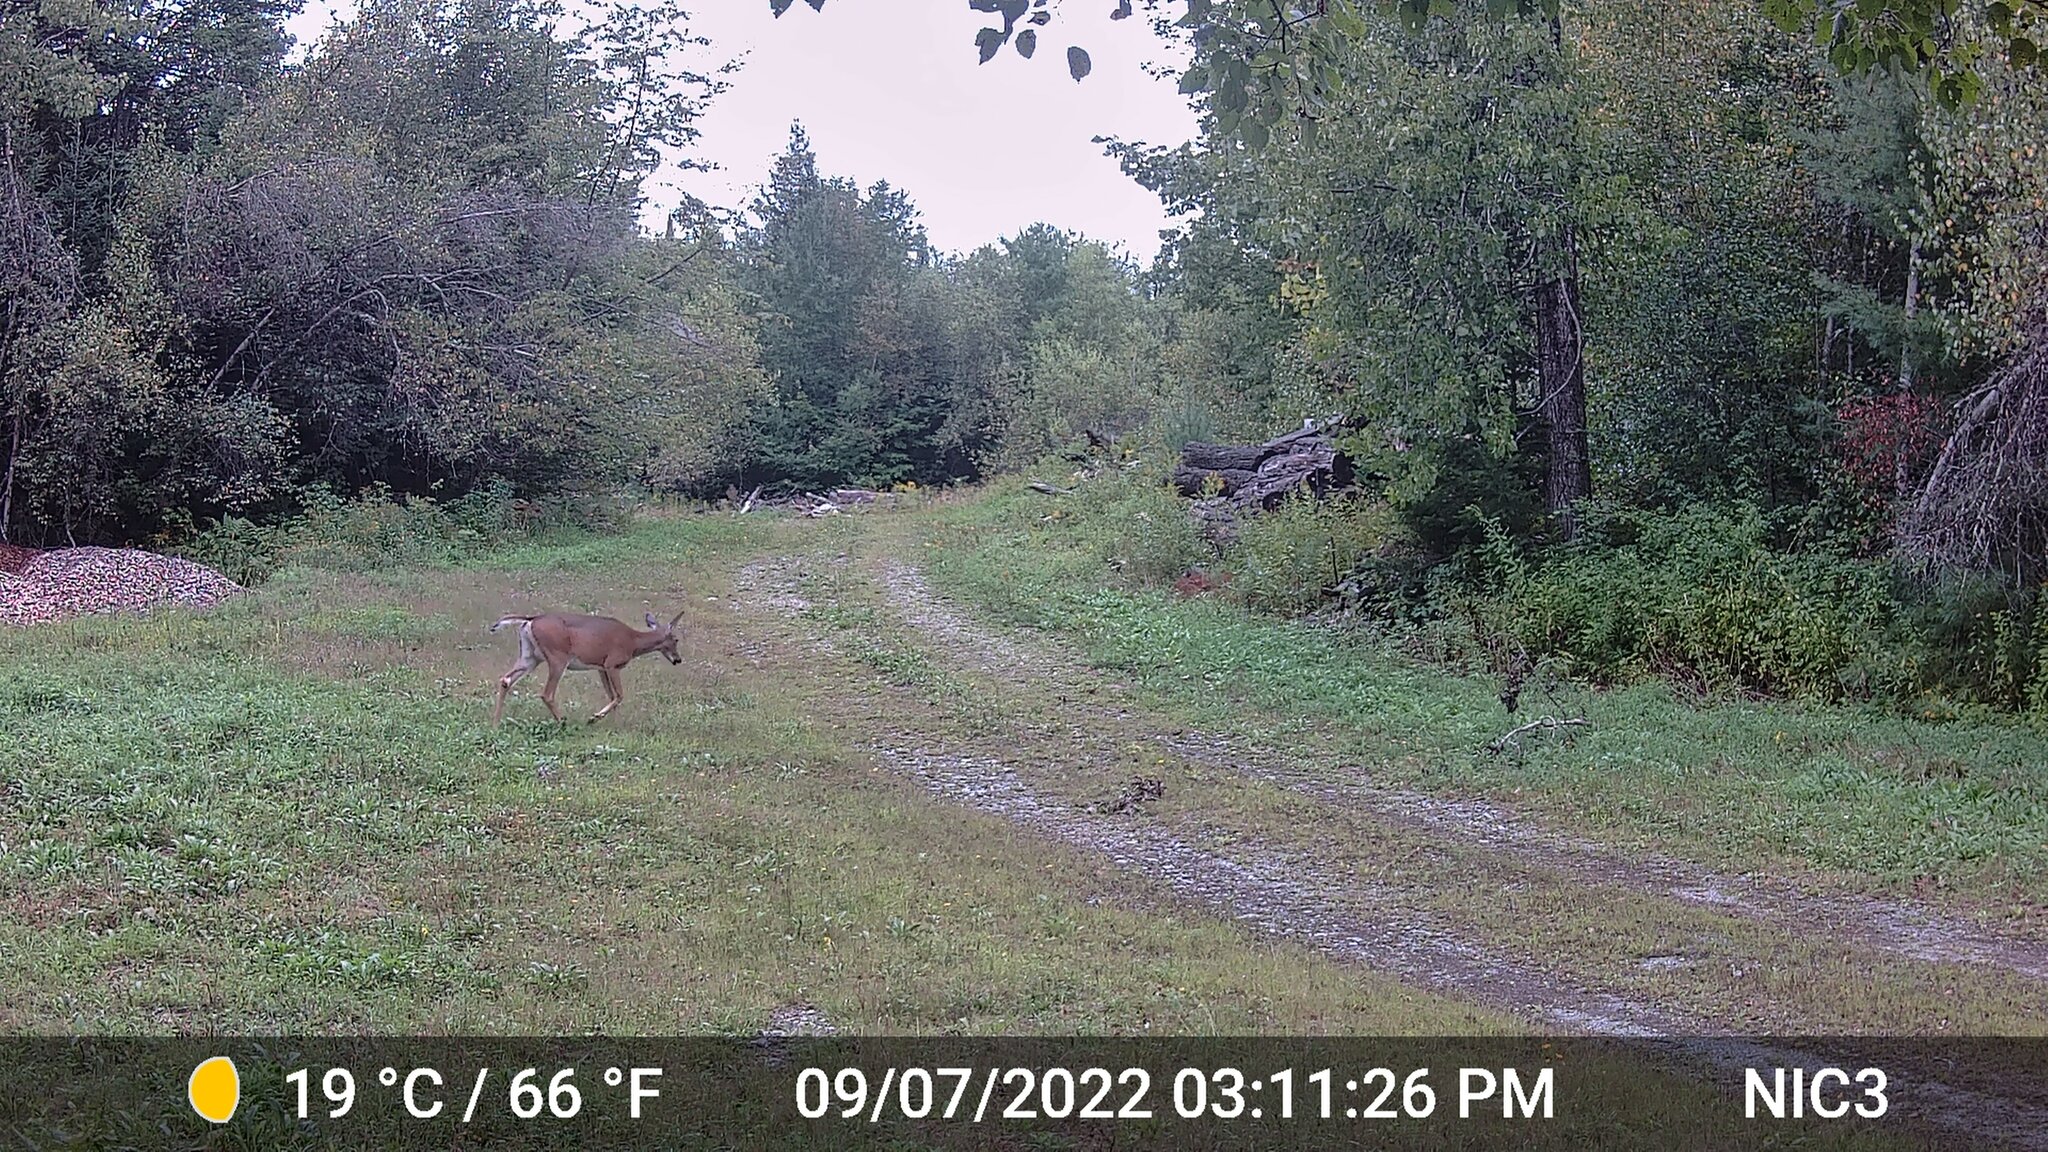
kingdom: Animalia
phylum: Chordata
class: Mammalia
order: Artiodactyla
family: Cervidae
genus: Odocoileus
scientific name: Odocoileus virginianus
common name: White-tailed deer
